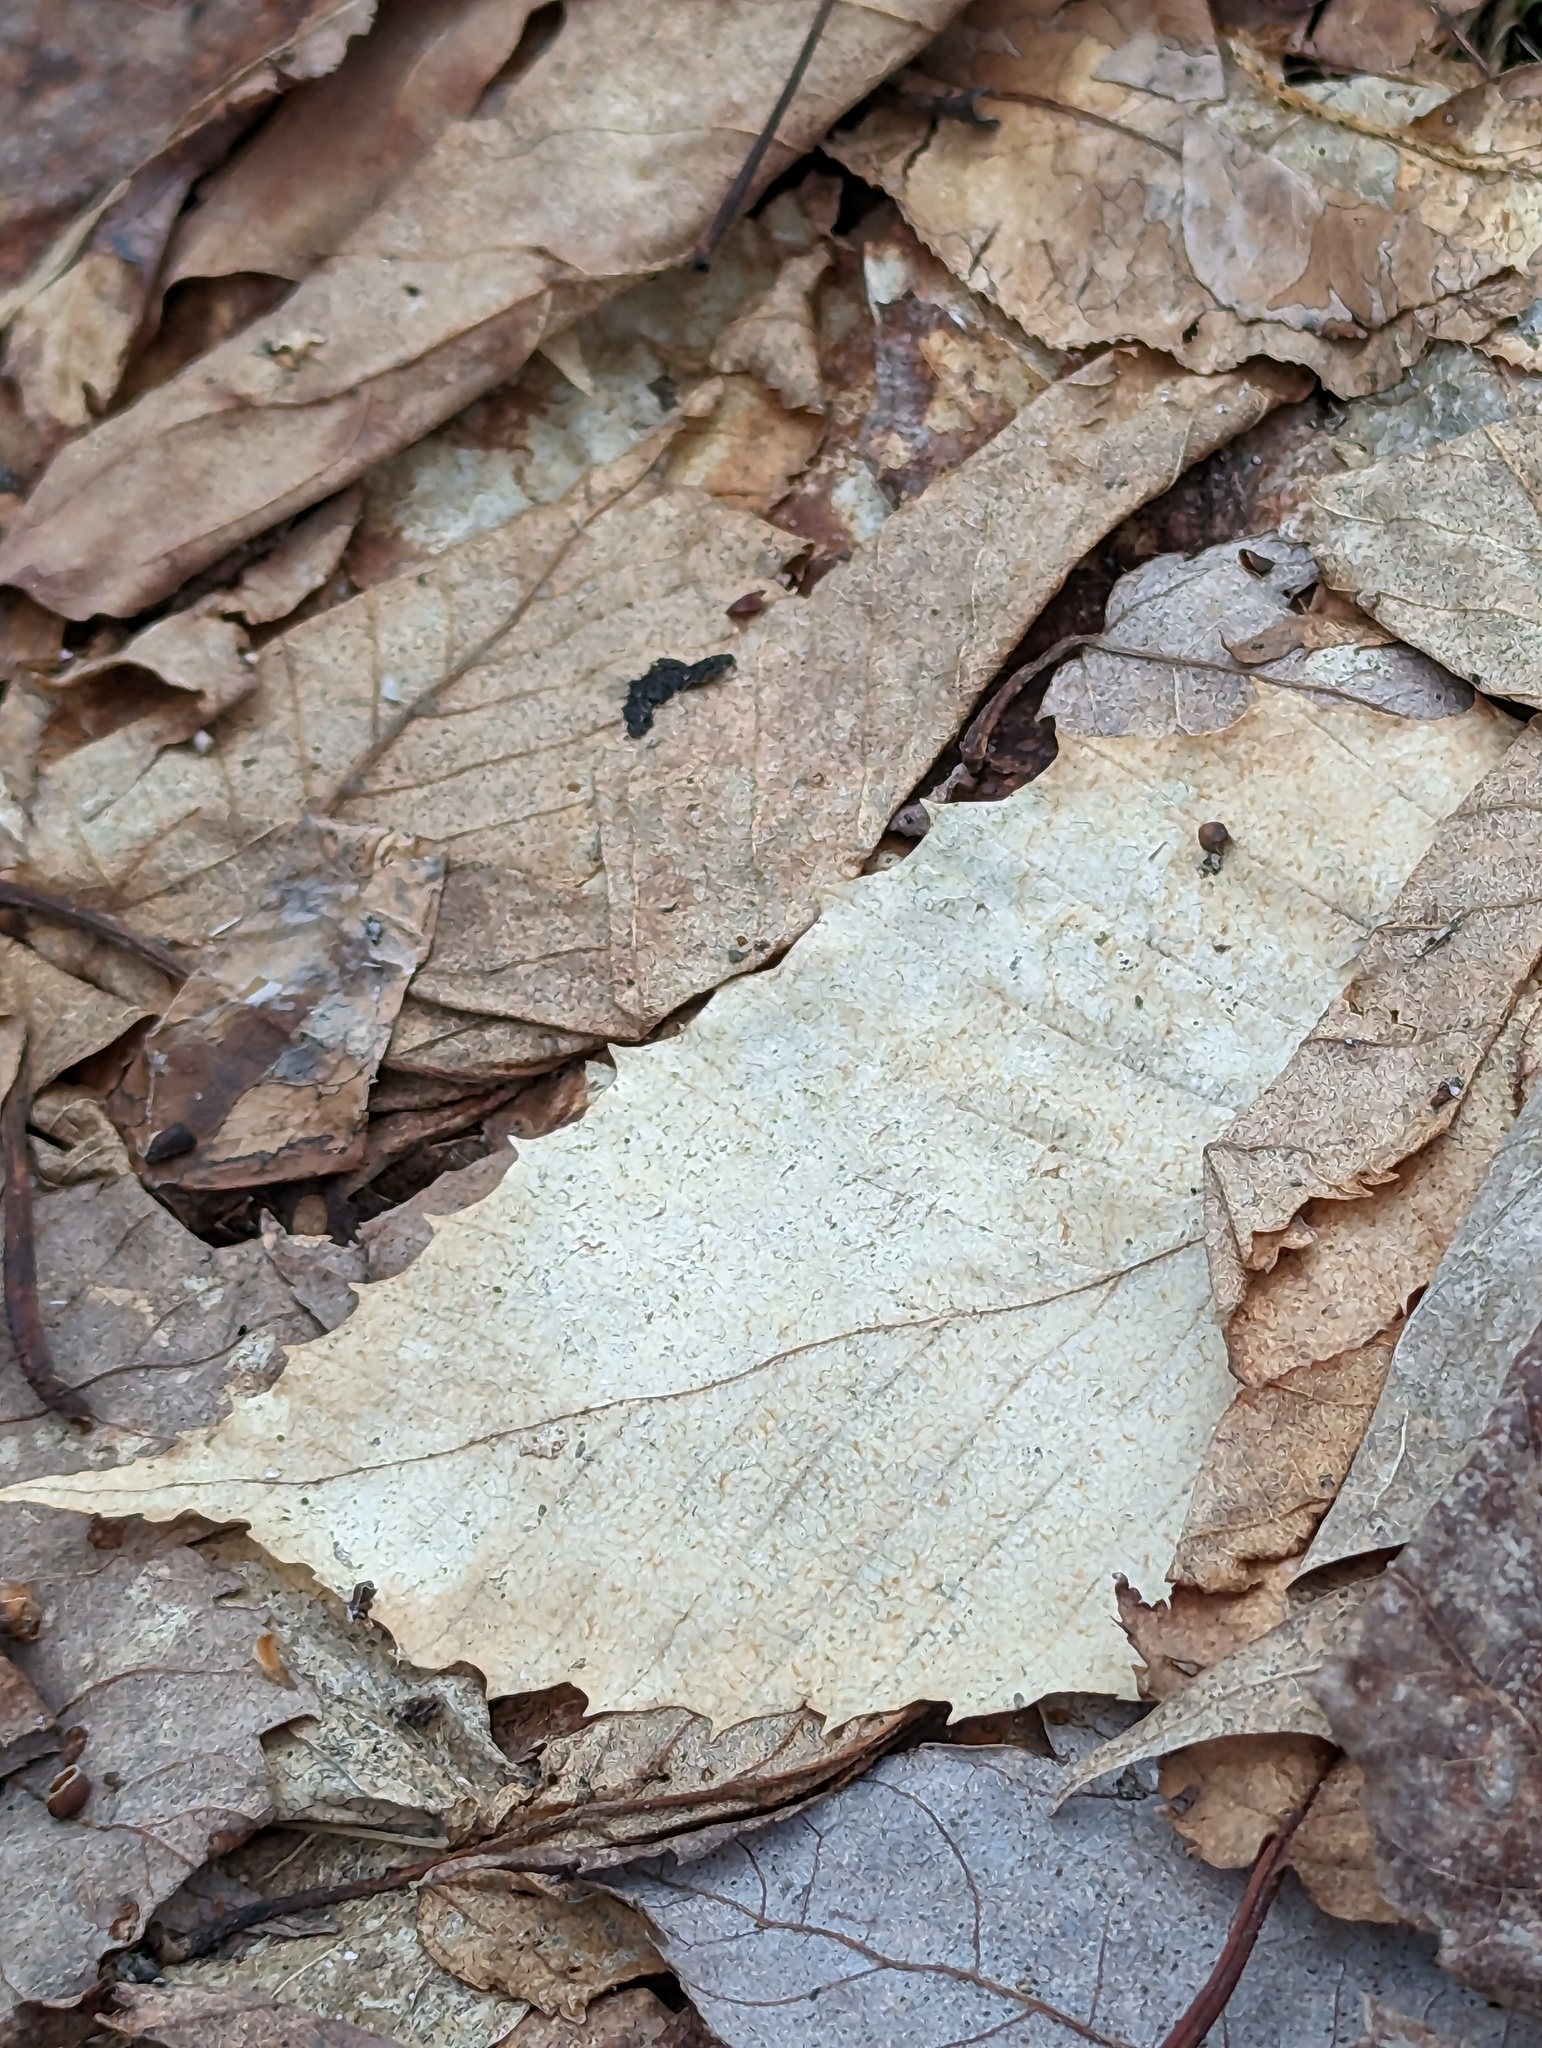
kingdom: Plantae
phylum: Tracheophyta
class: Magnoliopsida
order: Fagales
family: Fagaceae
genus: Fagus
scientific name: Fagus grandifolia
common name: American beech
